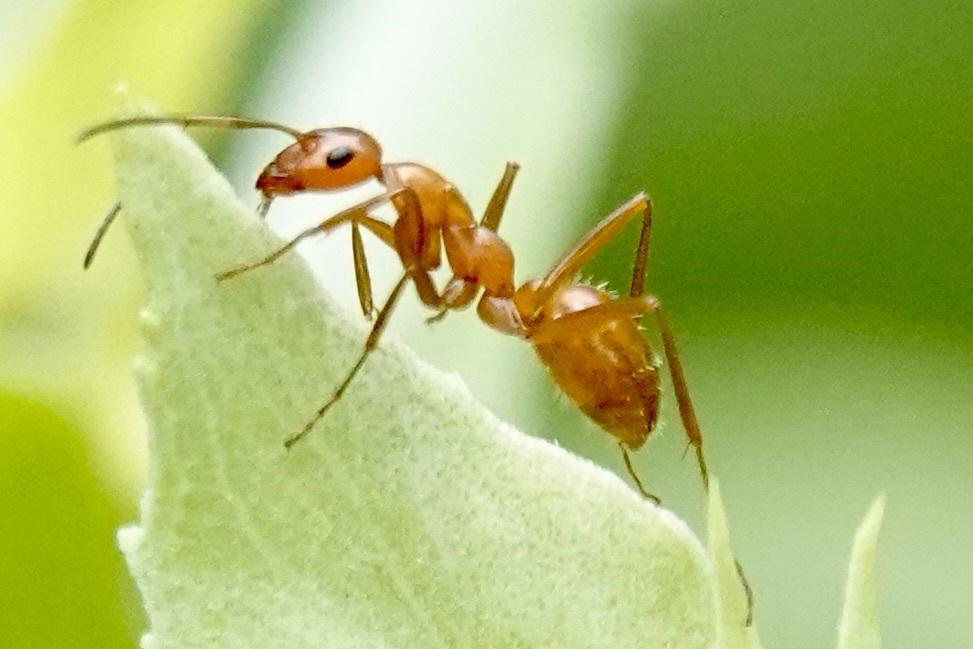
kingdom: Animalia
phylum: Arthropoda
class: Insecta
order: Hymenoptera
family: Formicidae
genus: Formica
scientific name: Formica pallidefulva
